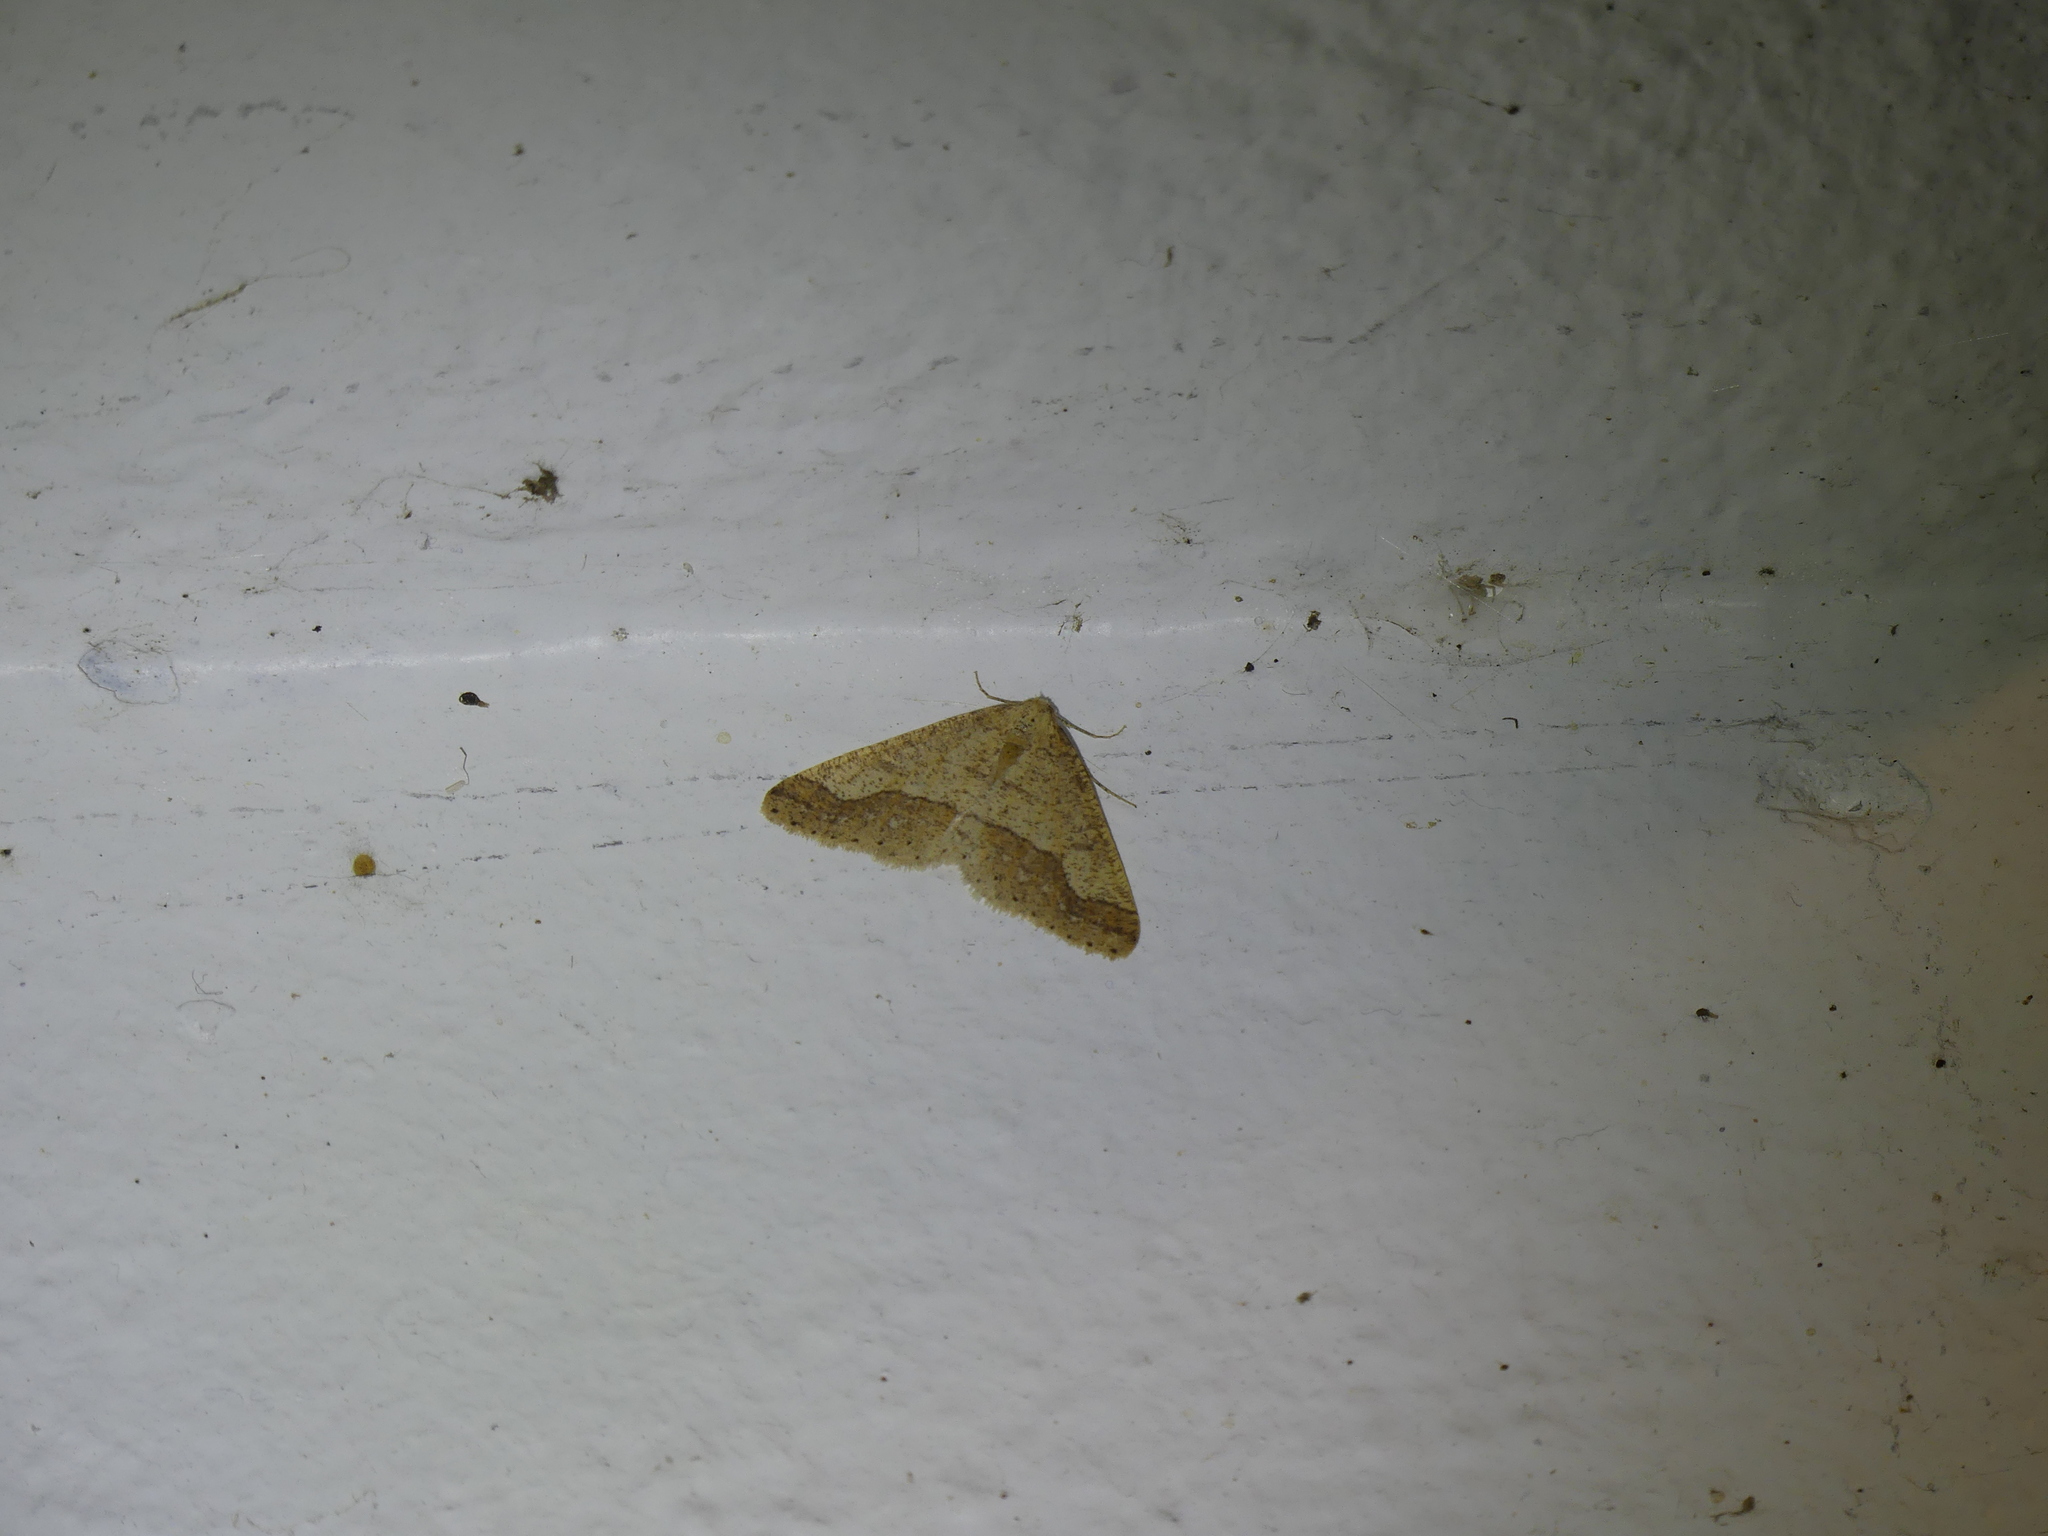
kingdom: Animalia
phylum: Arthropoda
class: Insecta
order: Lepidoptera
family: Geometridae
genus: Agriopis
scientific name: Agriopis marginaria
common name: Dotted border
